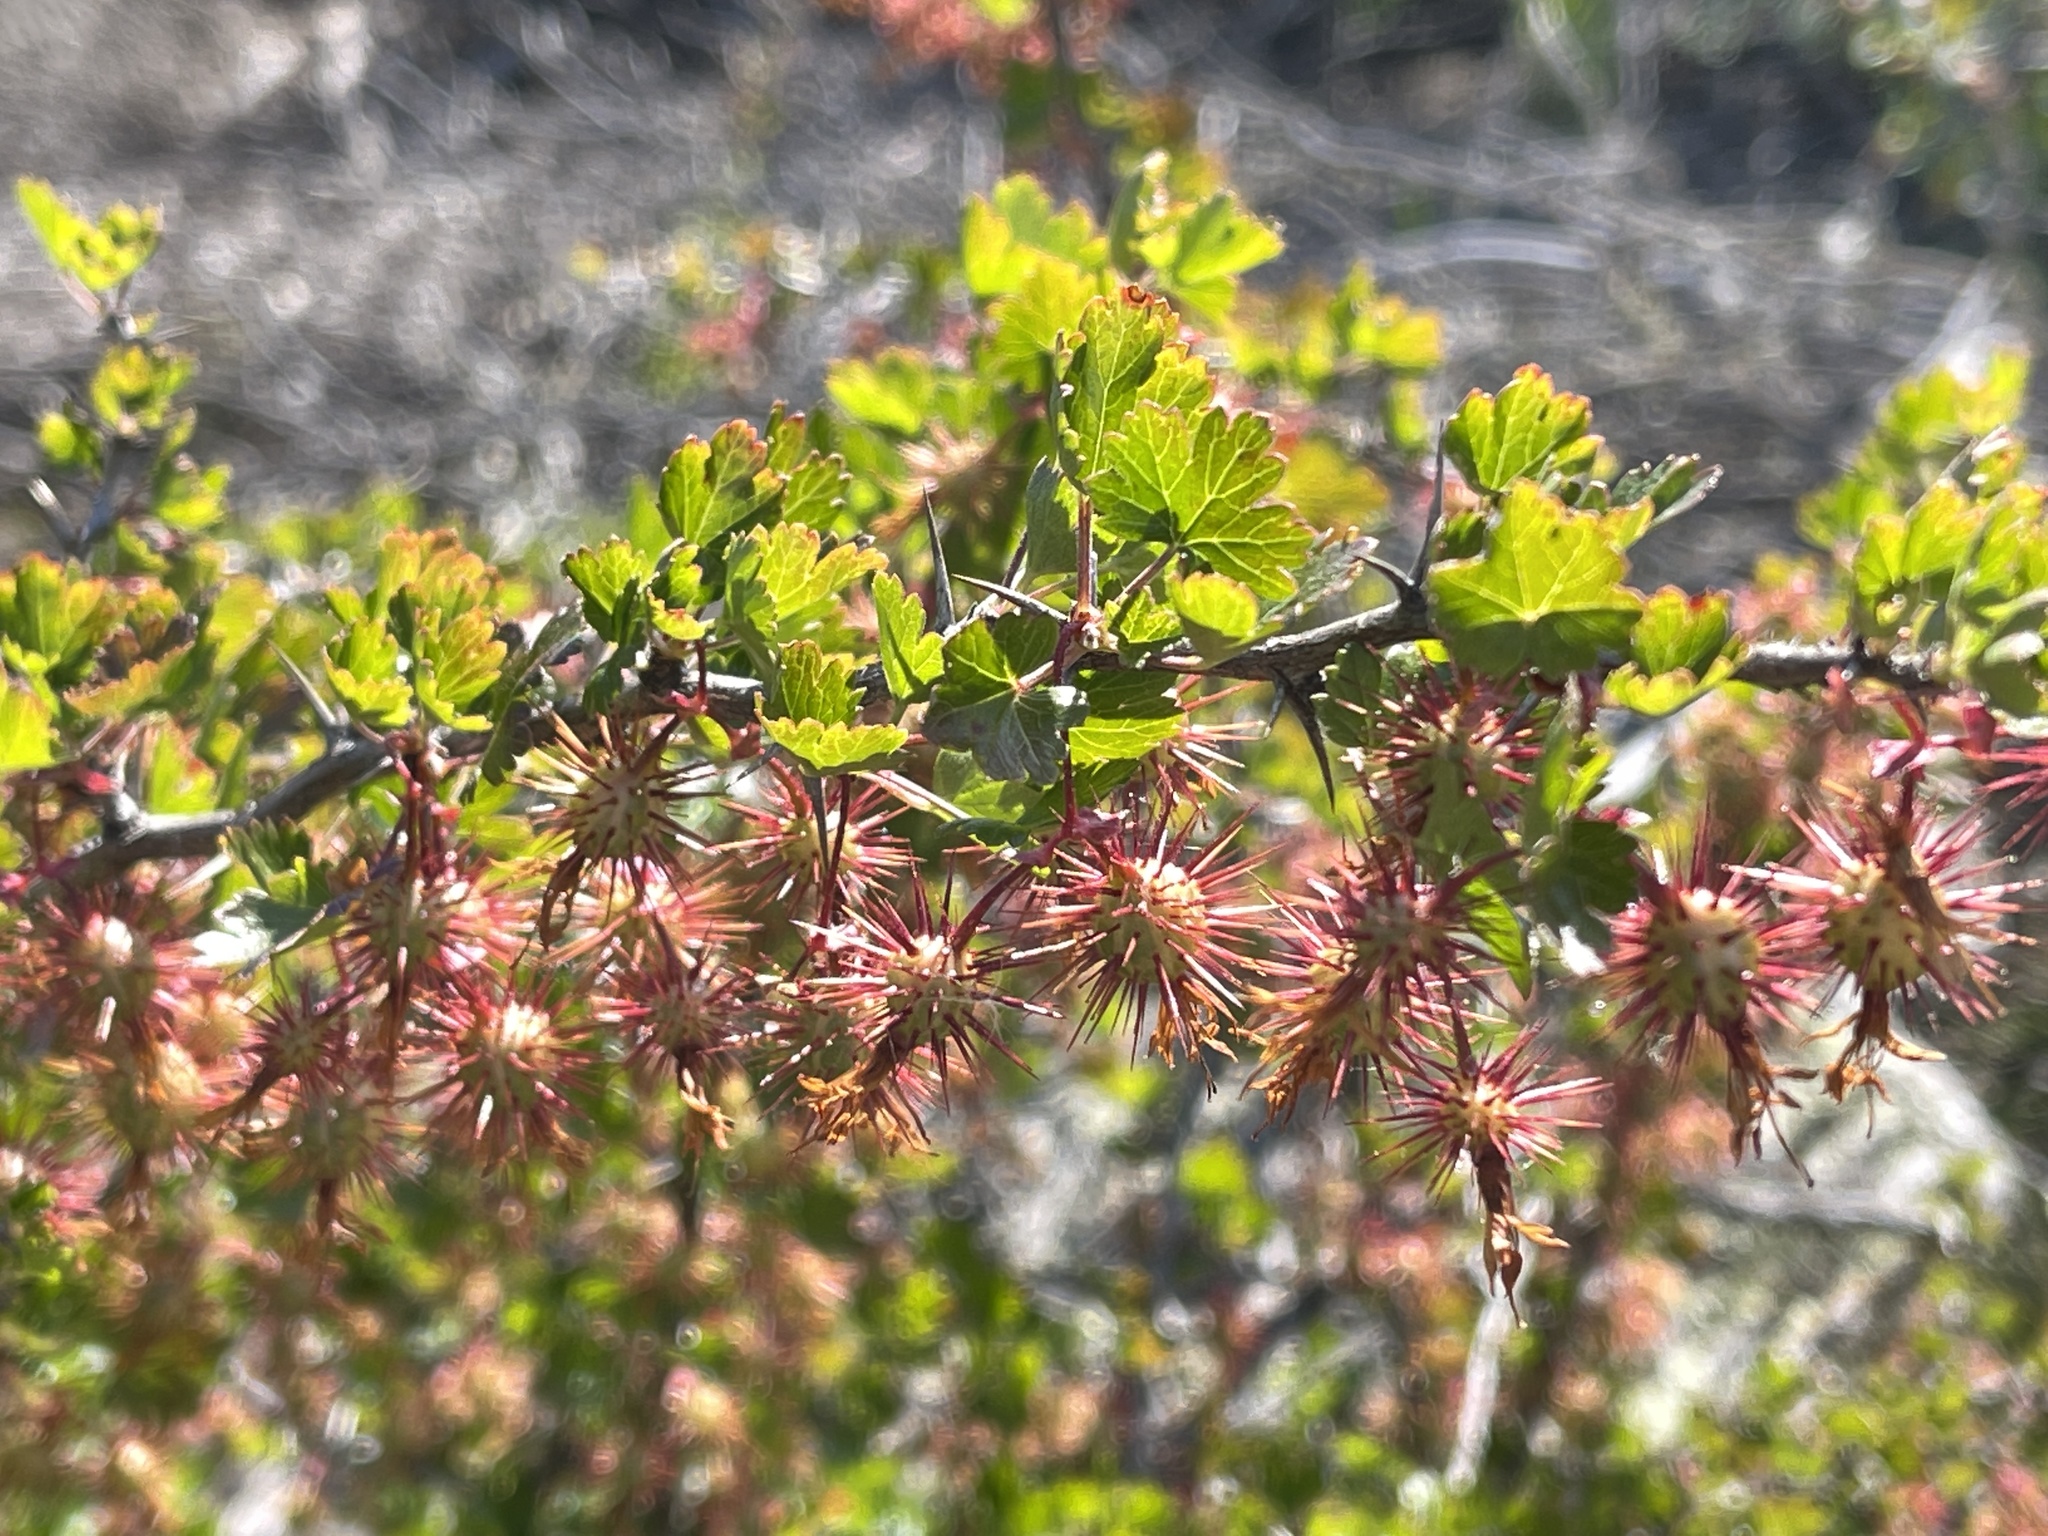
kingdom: Plantae
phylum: Tracheophyta
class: Magnoliopsida
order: Saxifragales
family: Grossulariaceae
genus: Ribes
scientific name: Ribes californicum
